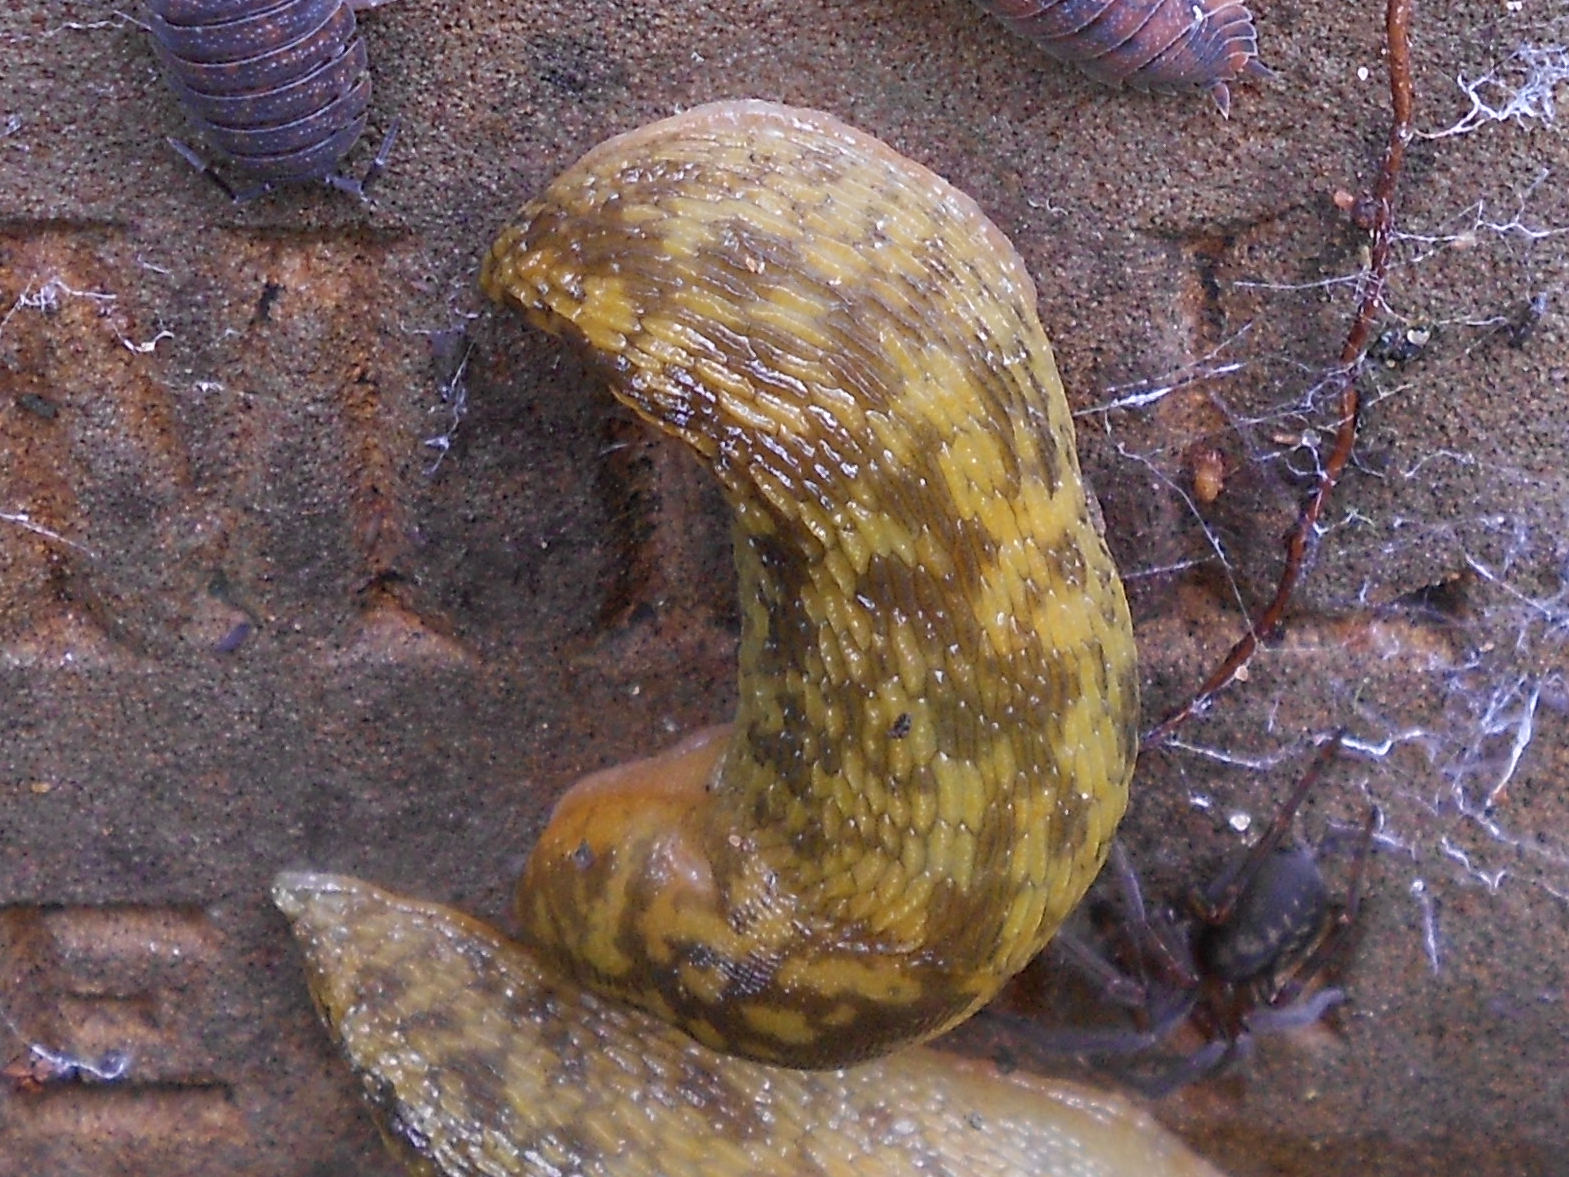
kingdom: Animalia
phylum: Mollusca
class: Gastropoda
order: Stylommatophora
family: Limacidae
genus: Limacus
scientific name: Limacus maculatus
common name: Irish yellow slug
